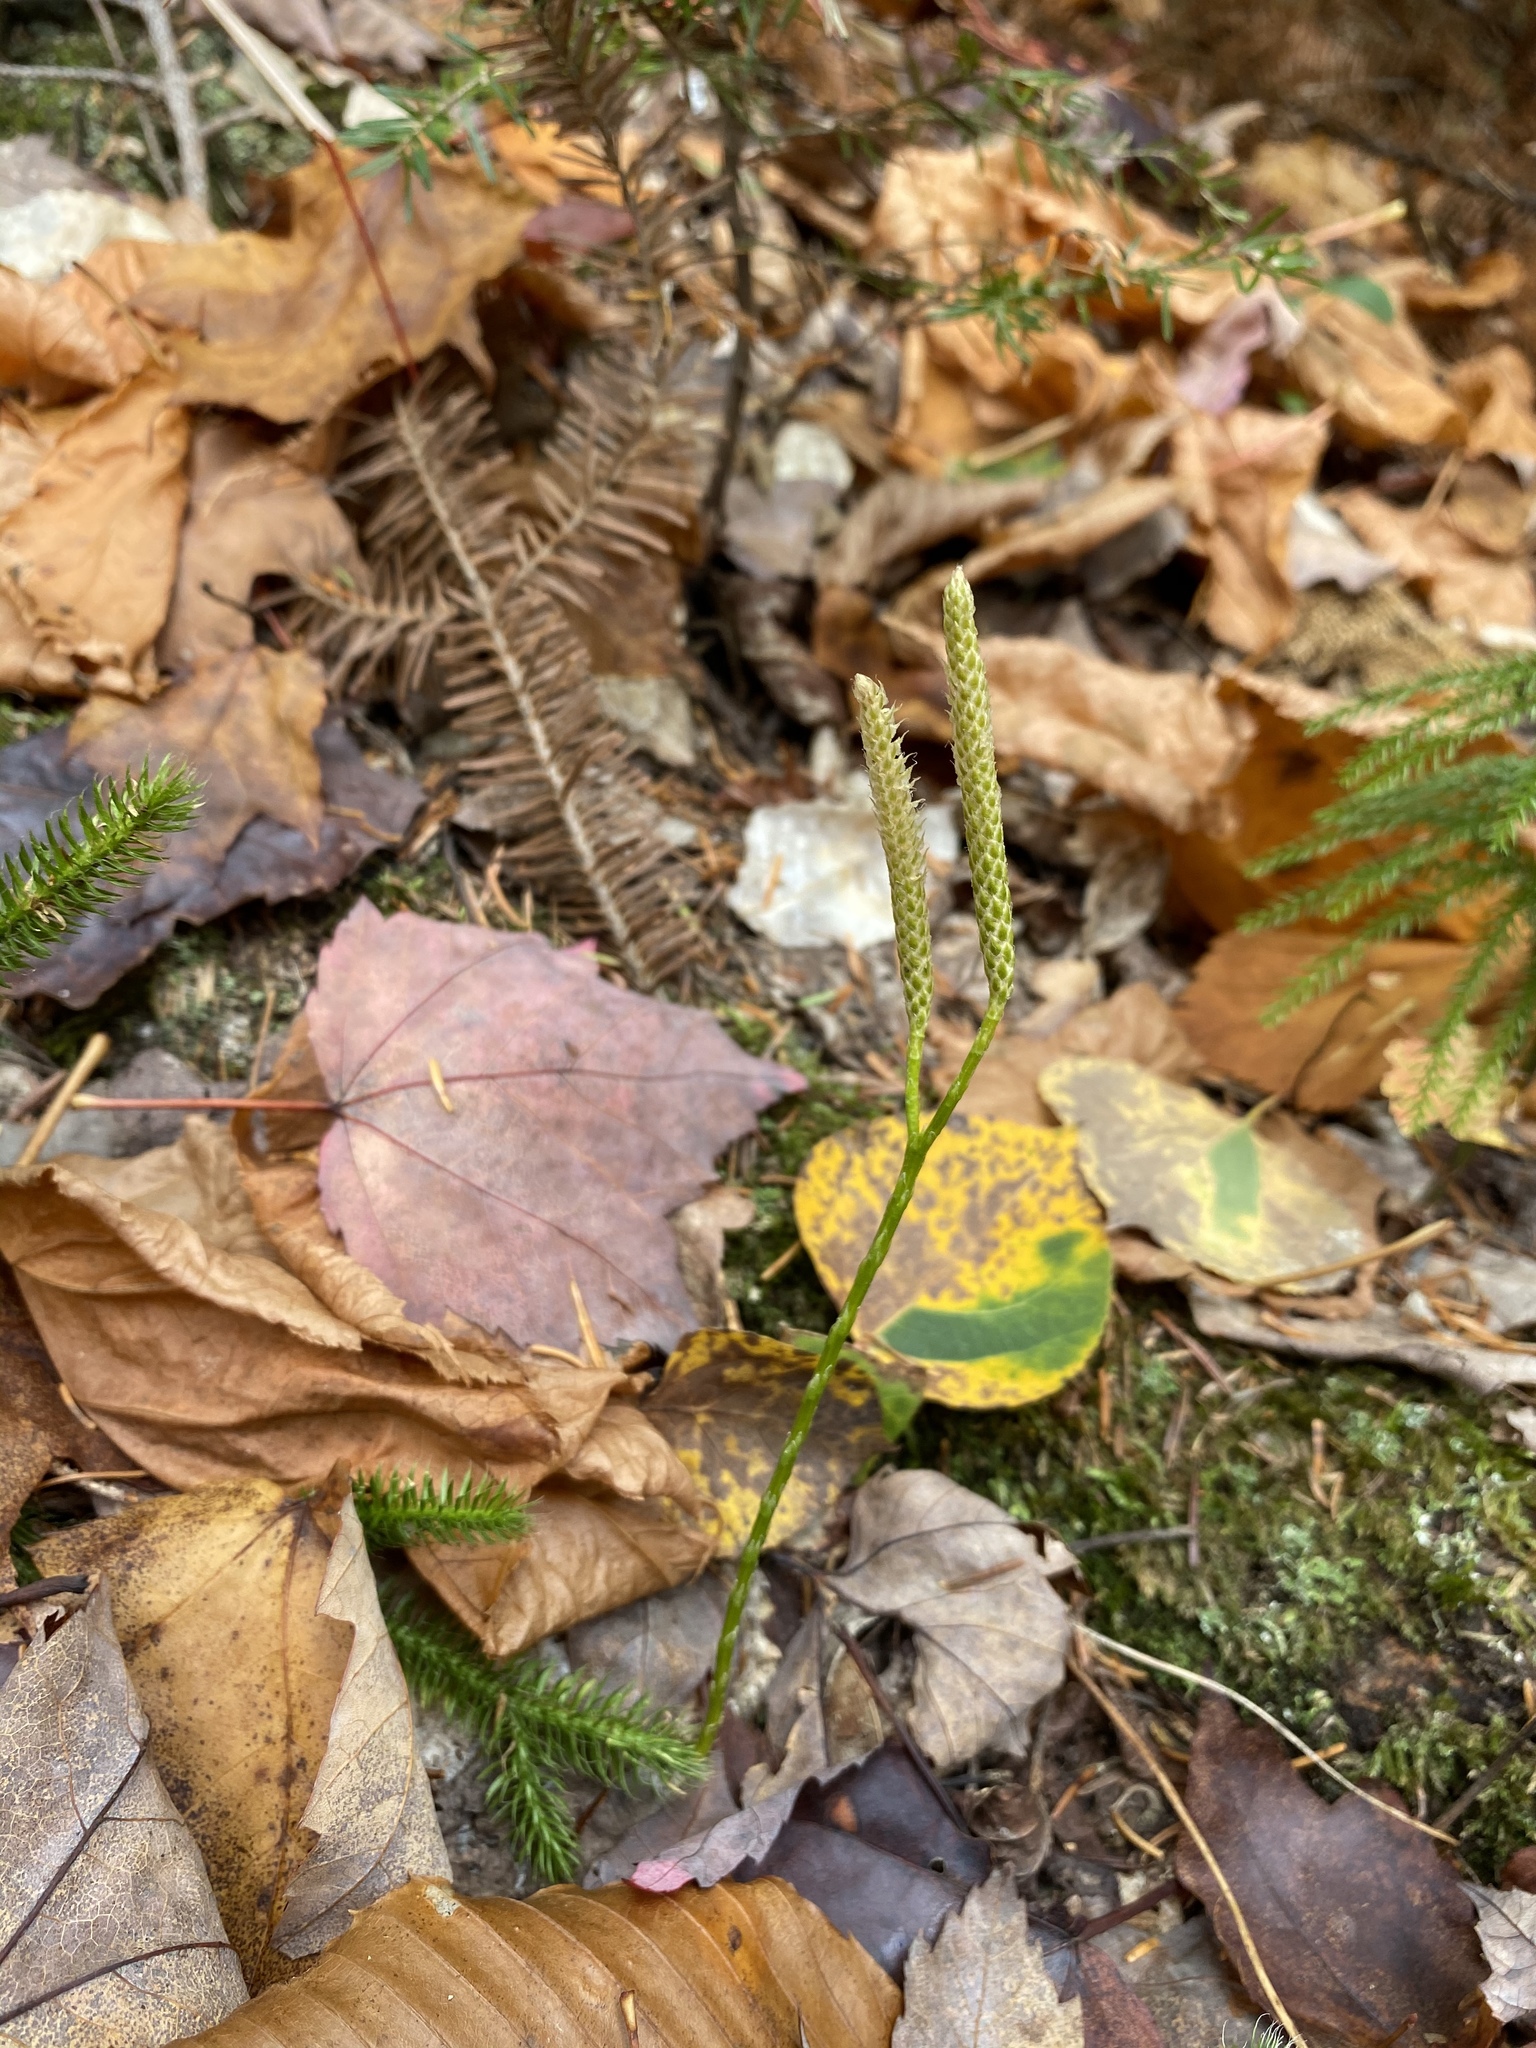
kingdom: Plantae
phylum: Tracheophyta
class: Lycopodiopsida
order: Lycopodiales
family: Lycopodiaceae
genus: Lycopodium
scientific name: Lycopodium clavatum
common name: Stag's-horn clubmoss
